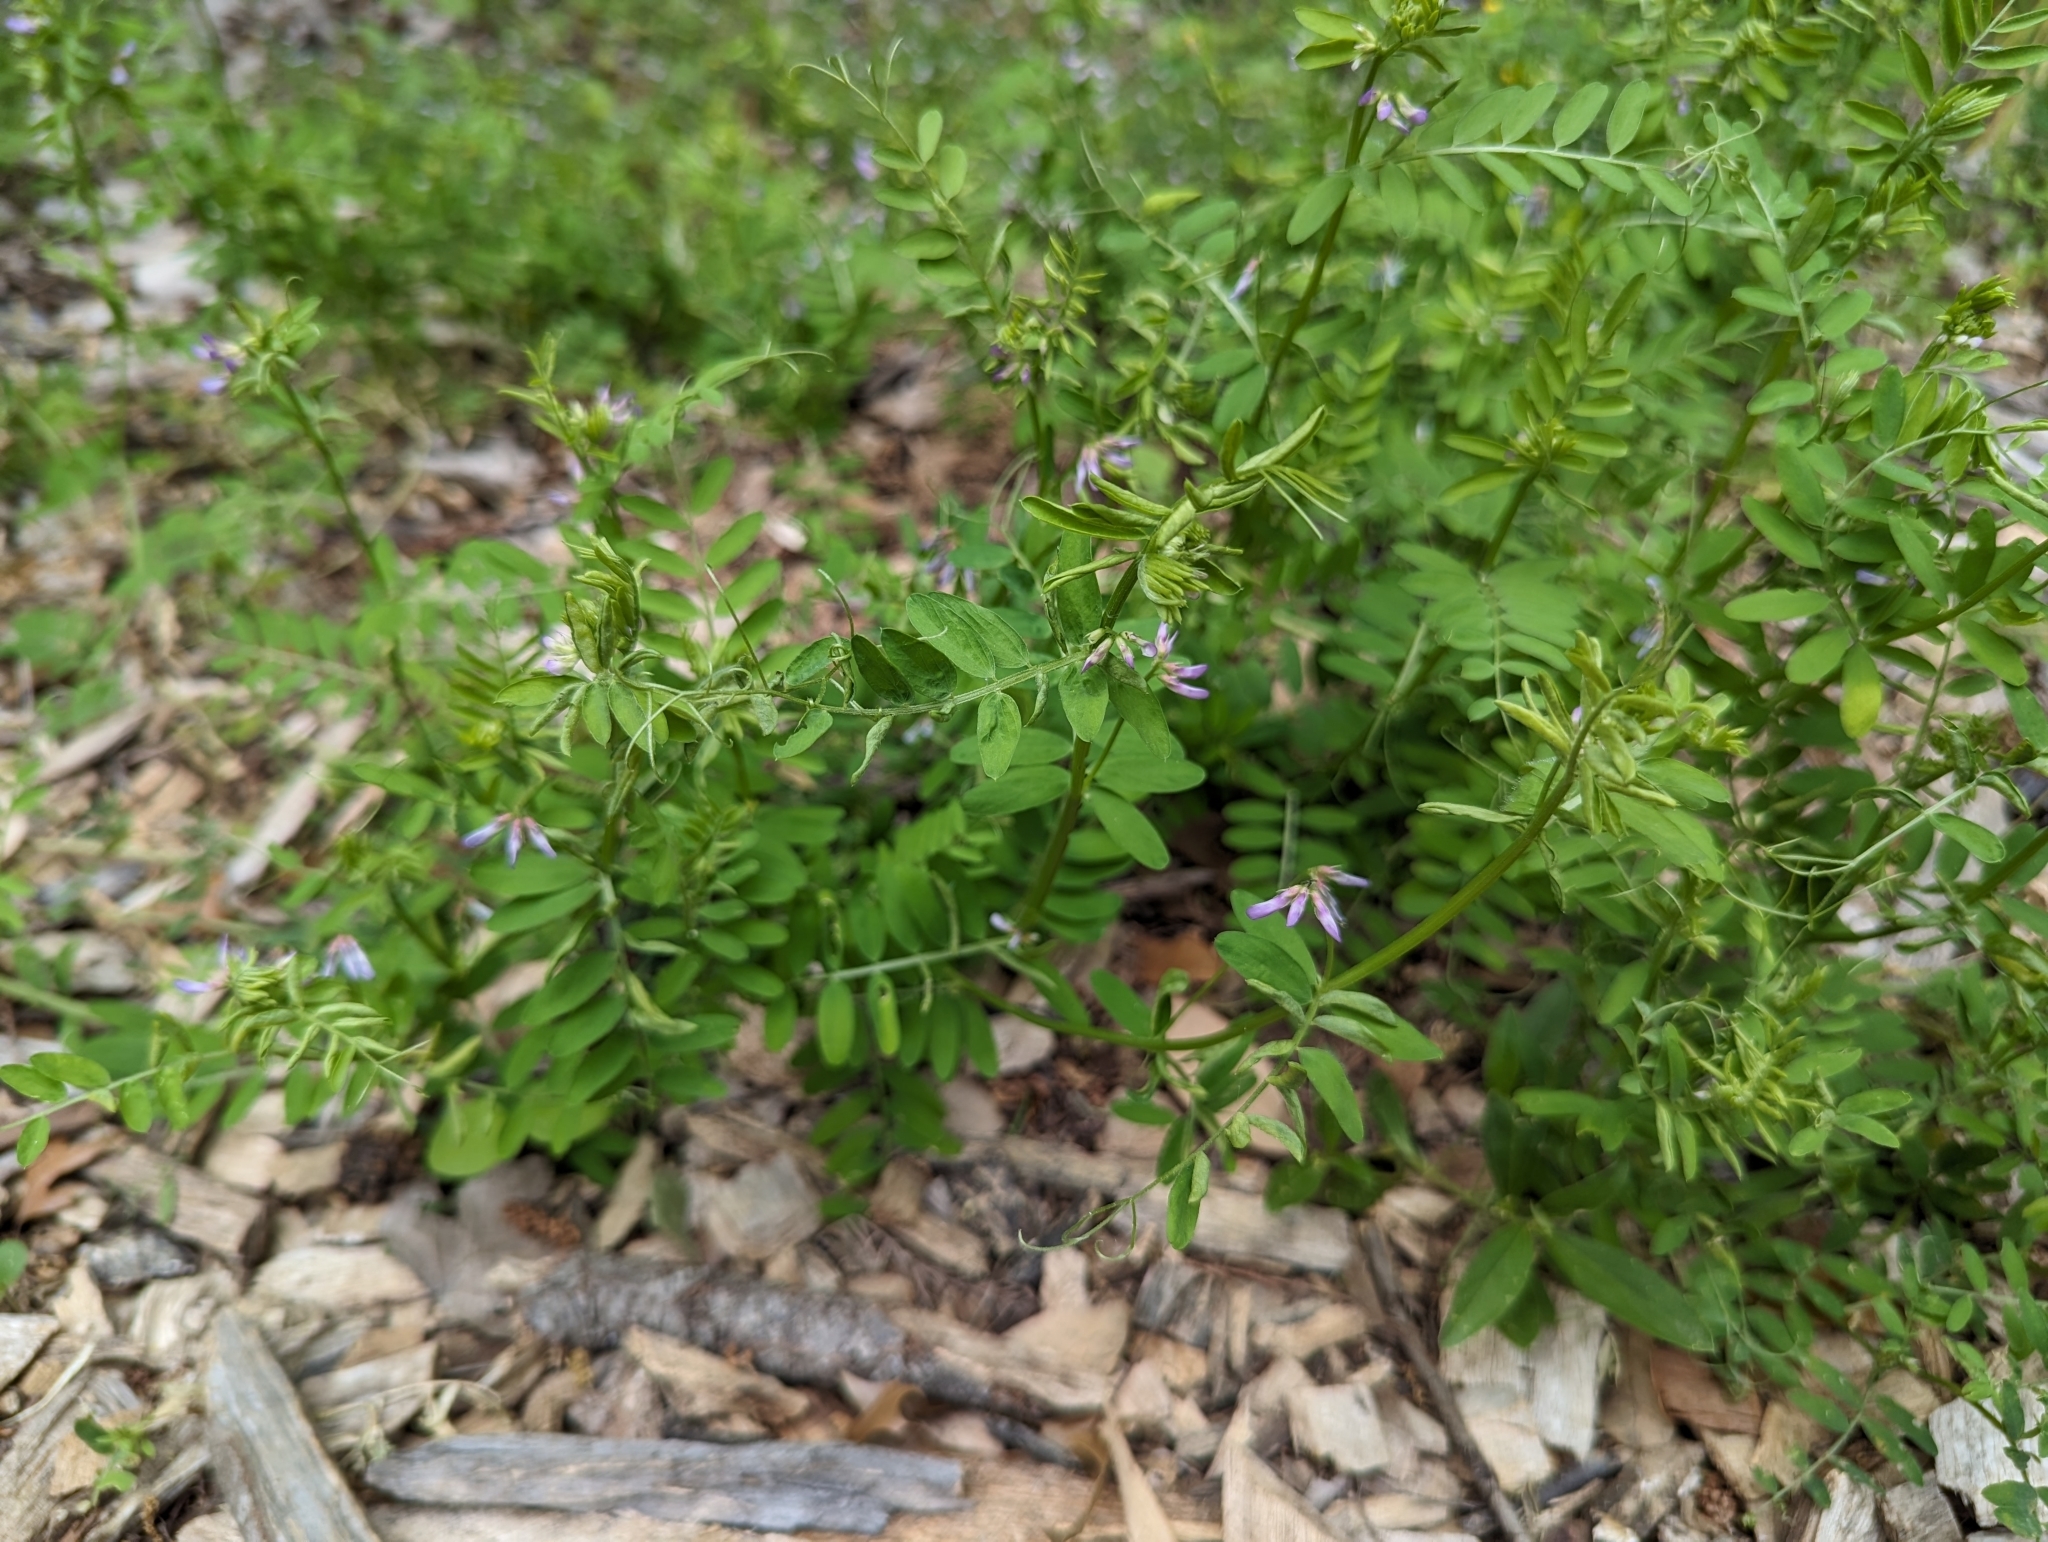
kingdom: Plantae
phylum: Tracheophyta
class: Magnoliopsida
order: Fabales
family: Fabaceae
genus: Vicia
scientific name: Vicia ludoviciana
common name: Louisiana vetch
